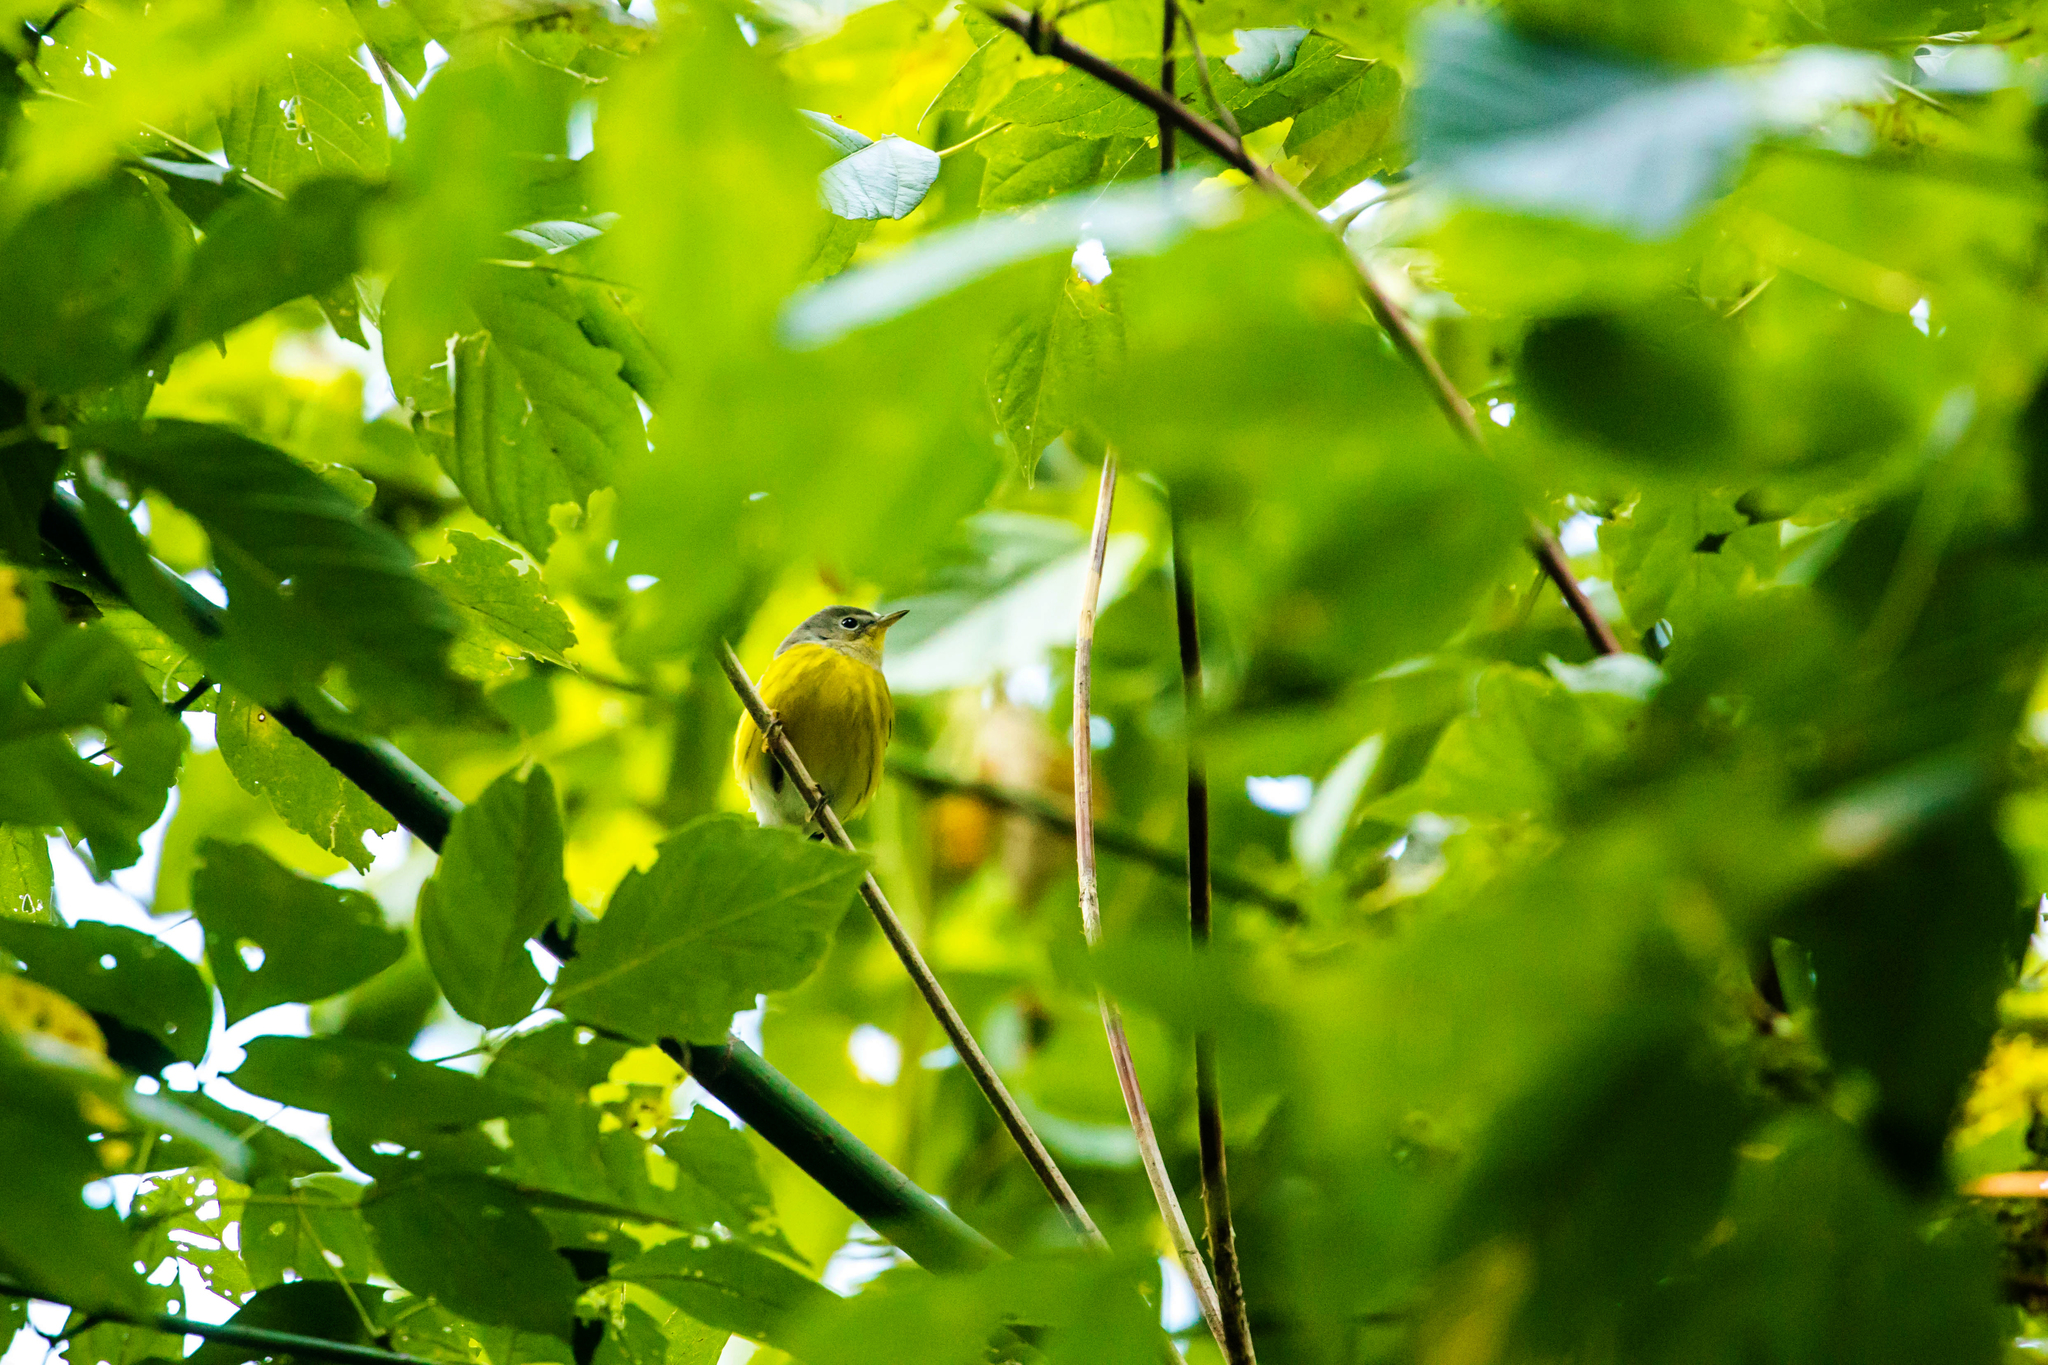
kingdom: Animalia
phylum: Chordata
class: Aves
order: Passeriformes
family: Parulidae
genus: Setophaga
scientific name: Setophaga magnolia
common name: Magnolia warbler
